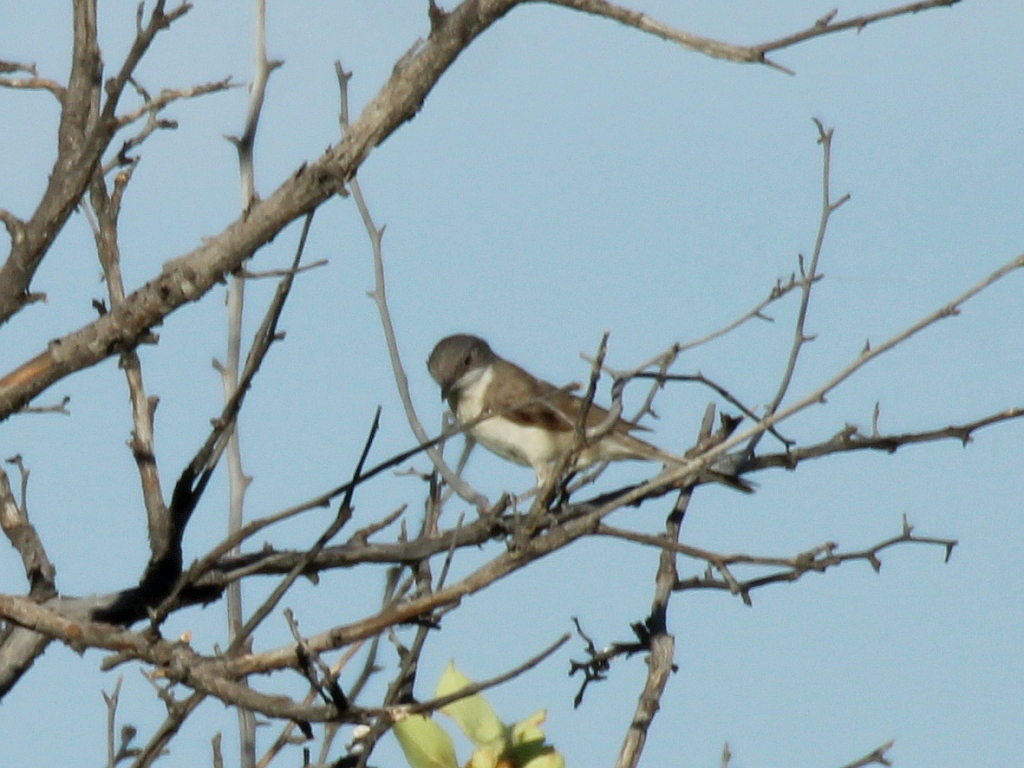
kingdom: Animalia
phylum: Chordata
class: Aves
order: Passeriformes
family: Sylviidae
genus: Sylvia
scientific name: Sylvia curruca
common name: Lesser whitethroat
